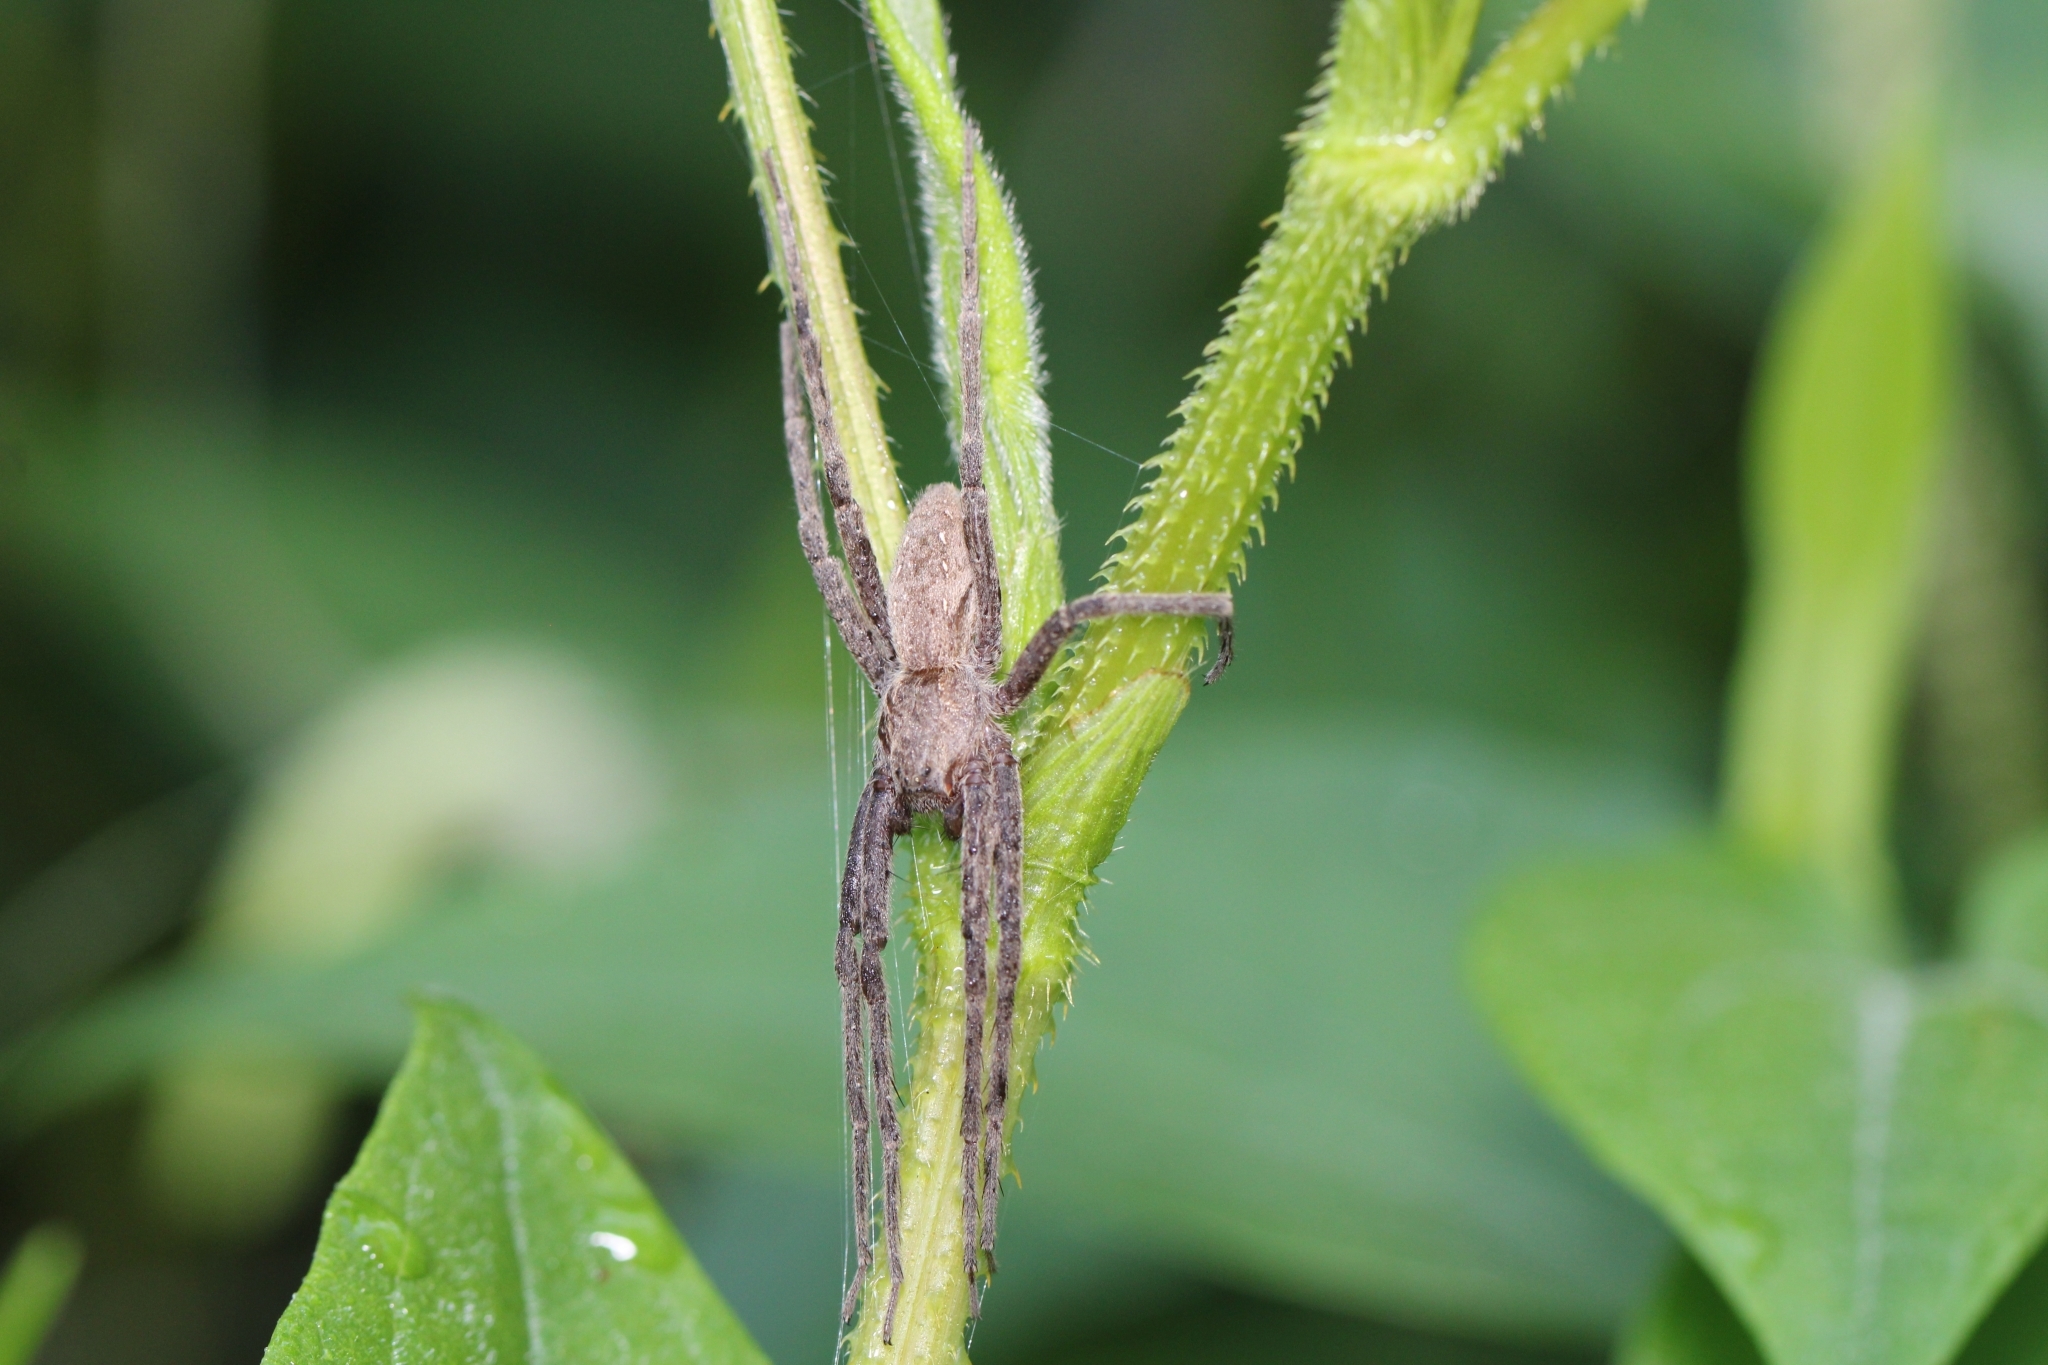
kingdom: Animalia
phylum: Arthropoda
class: Arachnida
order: Araneae
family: Pisauridae
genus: Pisaurina
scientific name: Pisaurina mira
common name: American nursery web spider
